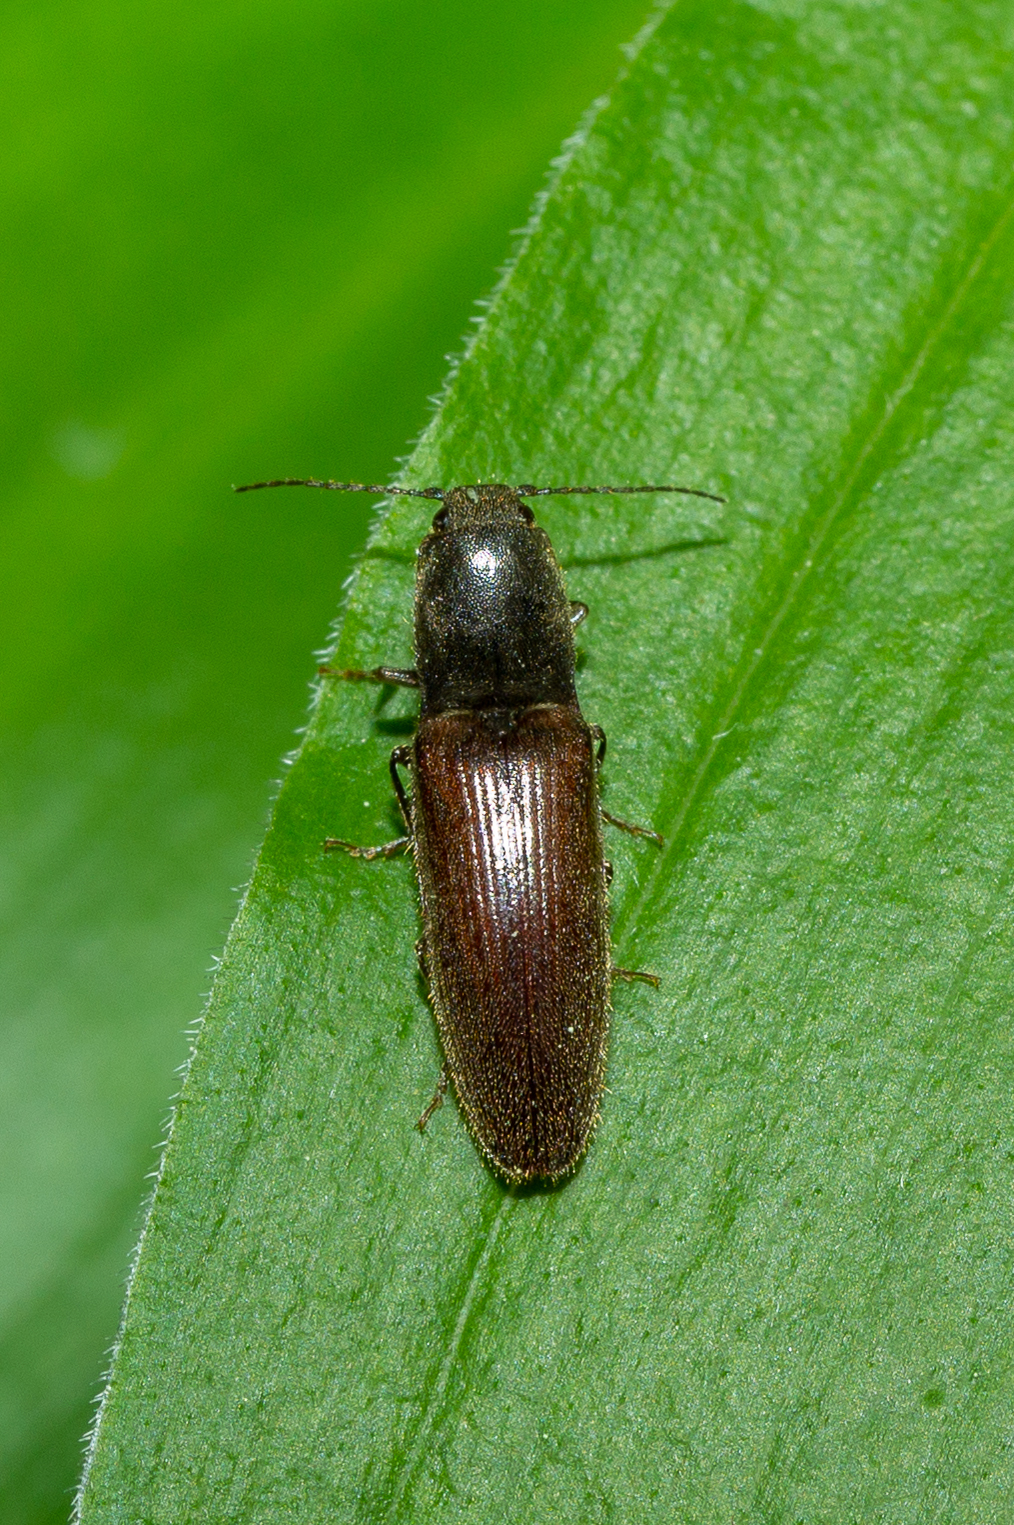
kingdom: Animalia
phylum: Arthropoda
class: Insecta
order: Coleoptera
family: Elateridae
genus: Athous
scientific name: Athous haemorrhoidalis
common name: Red-brown click beetle
